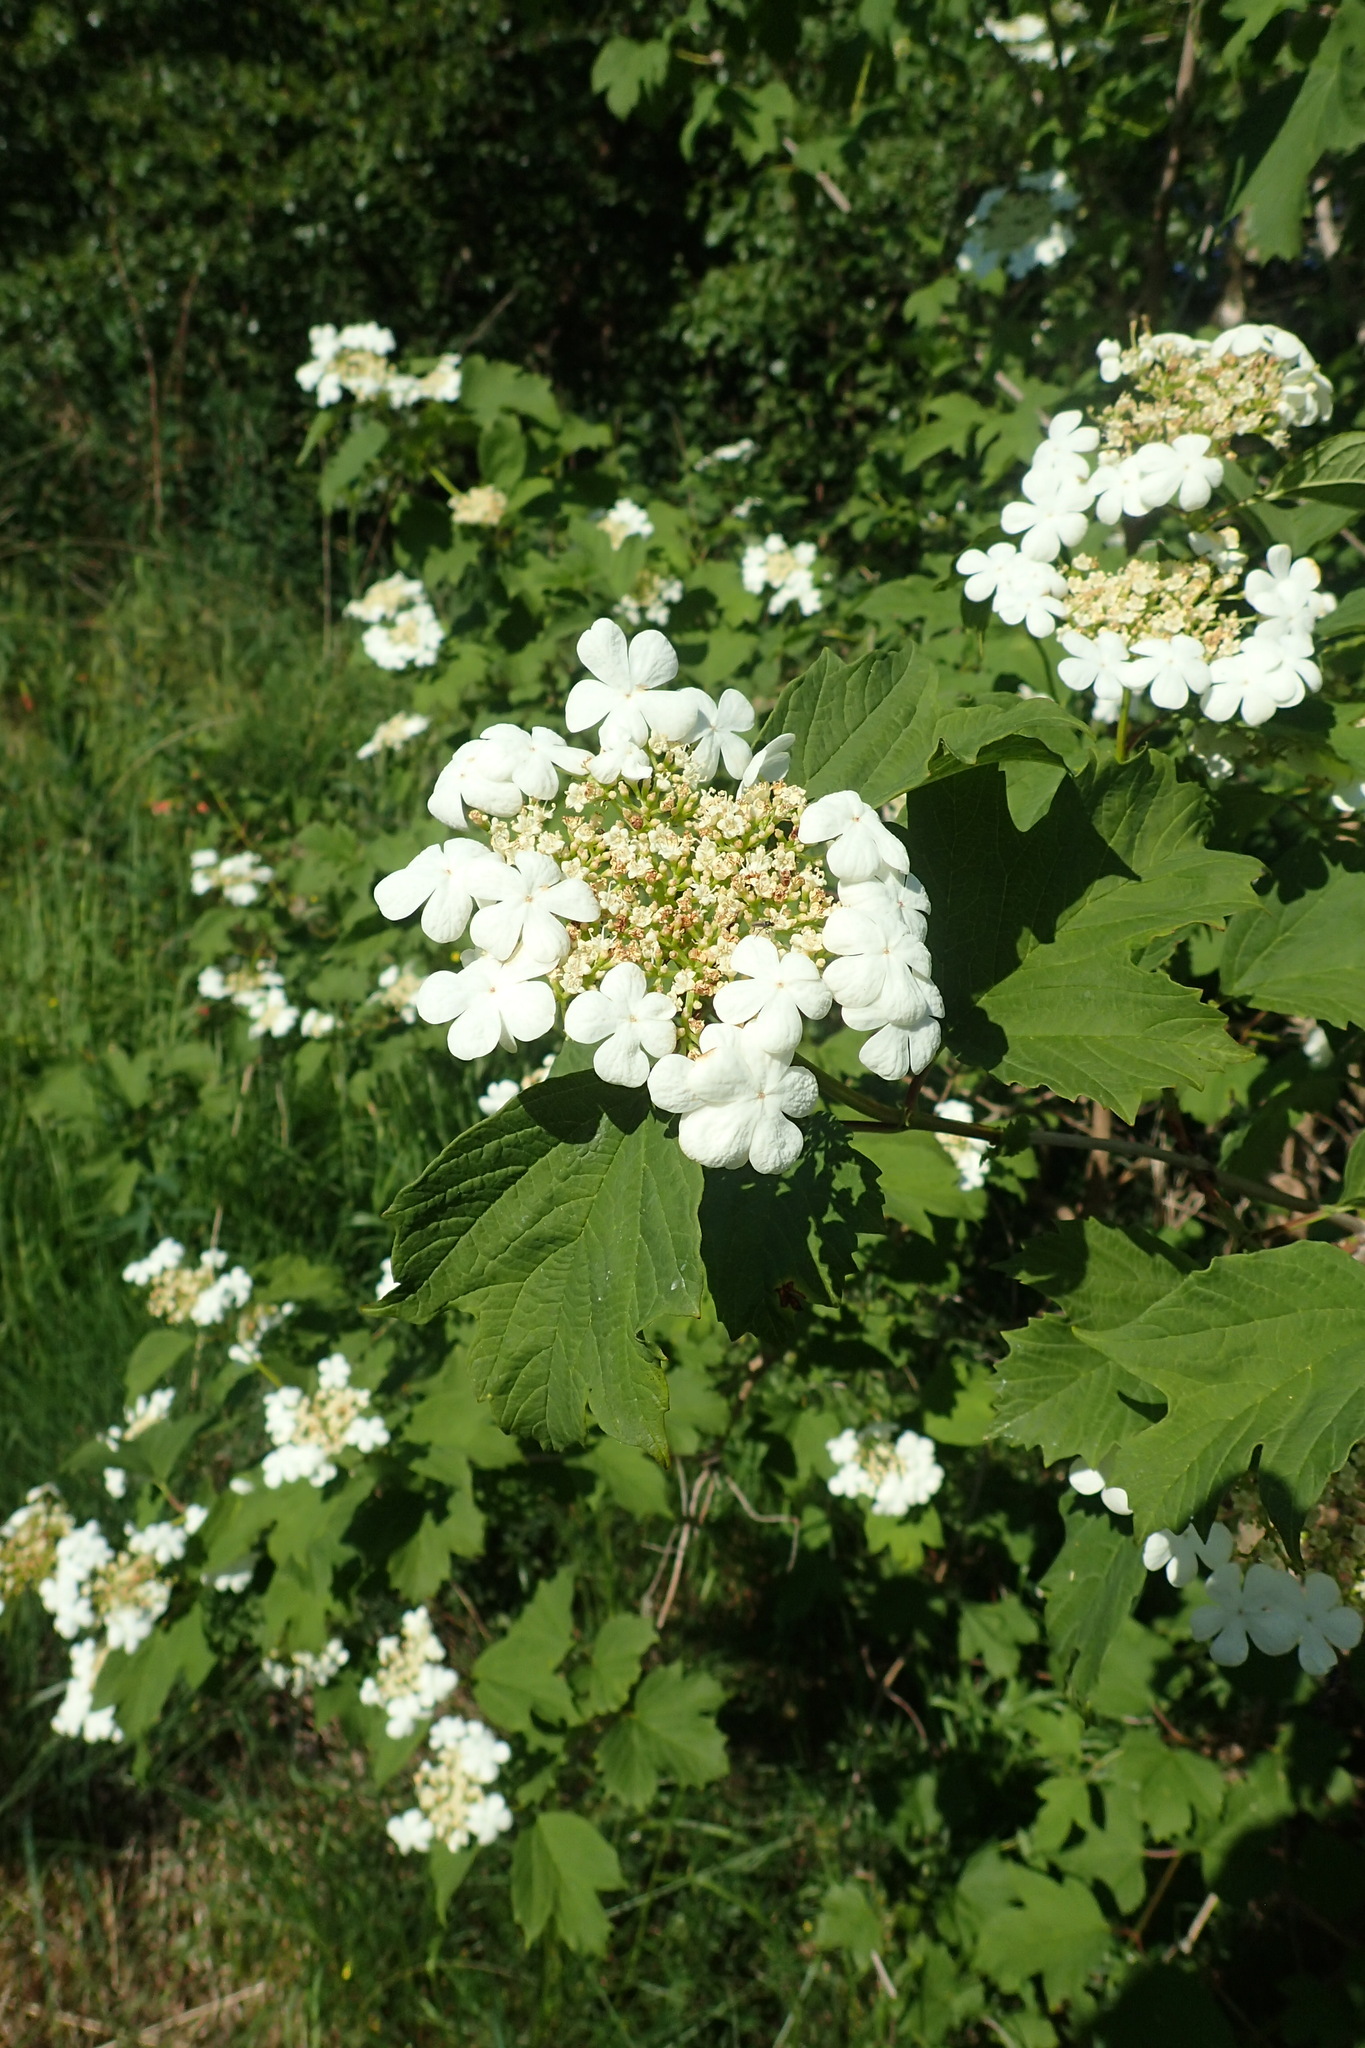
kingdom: Plantae
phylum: Tracheophyta
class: Magnoliopsida
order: Dipsacales
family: Viburnaceae
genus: Viburnum
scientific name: Viburnum opulus
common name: Guelder-rose
